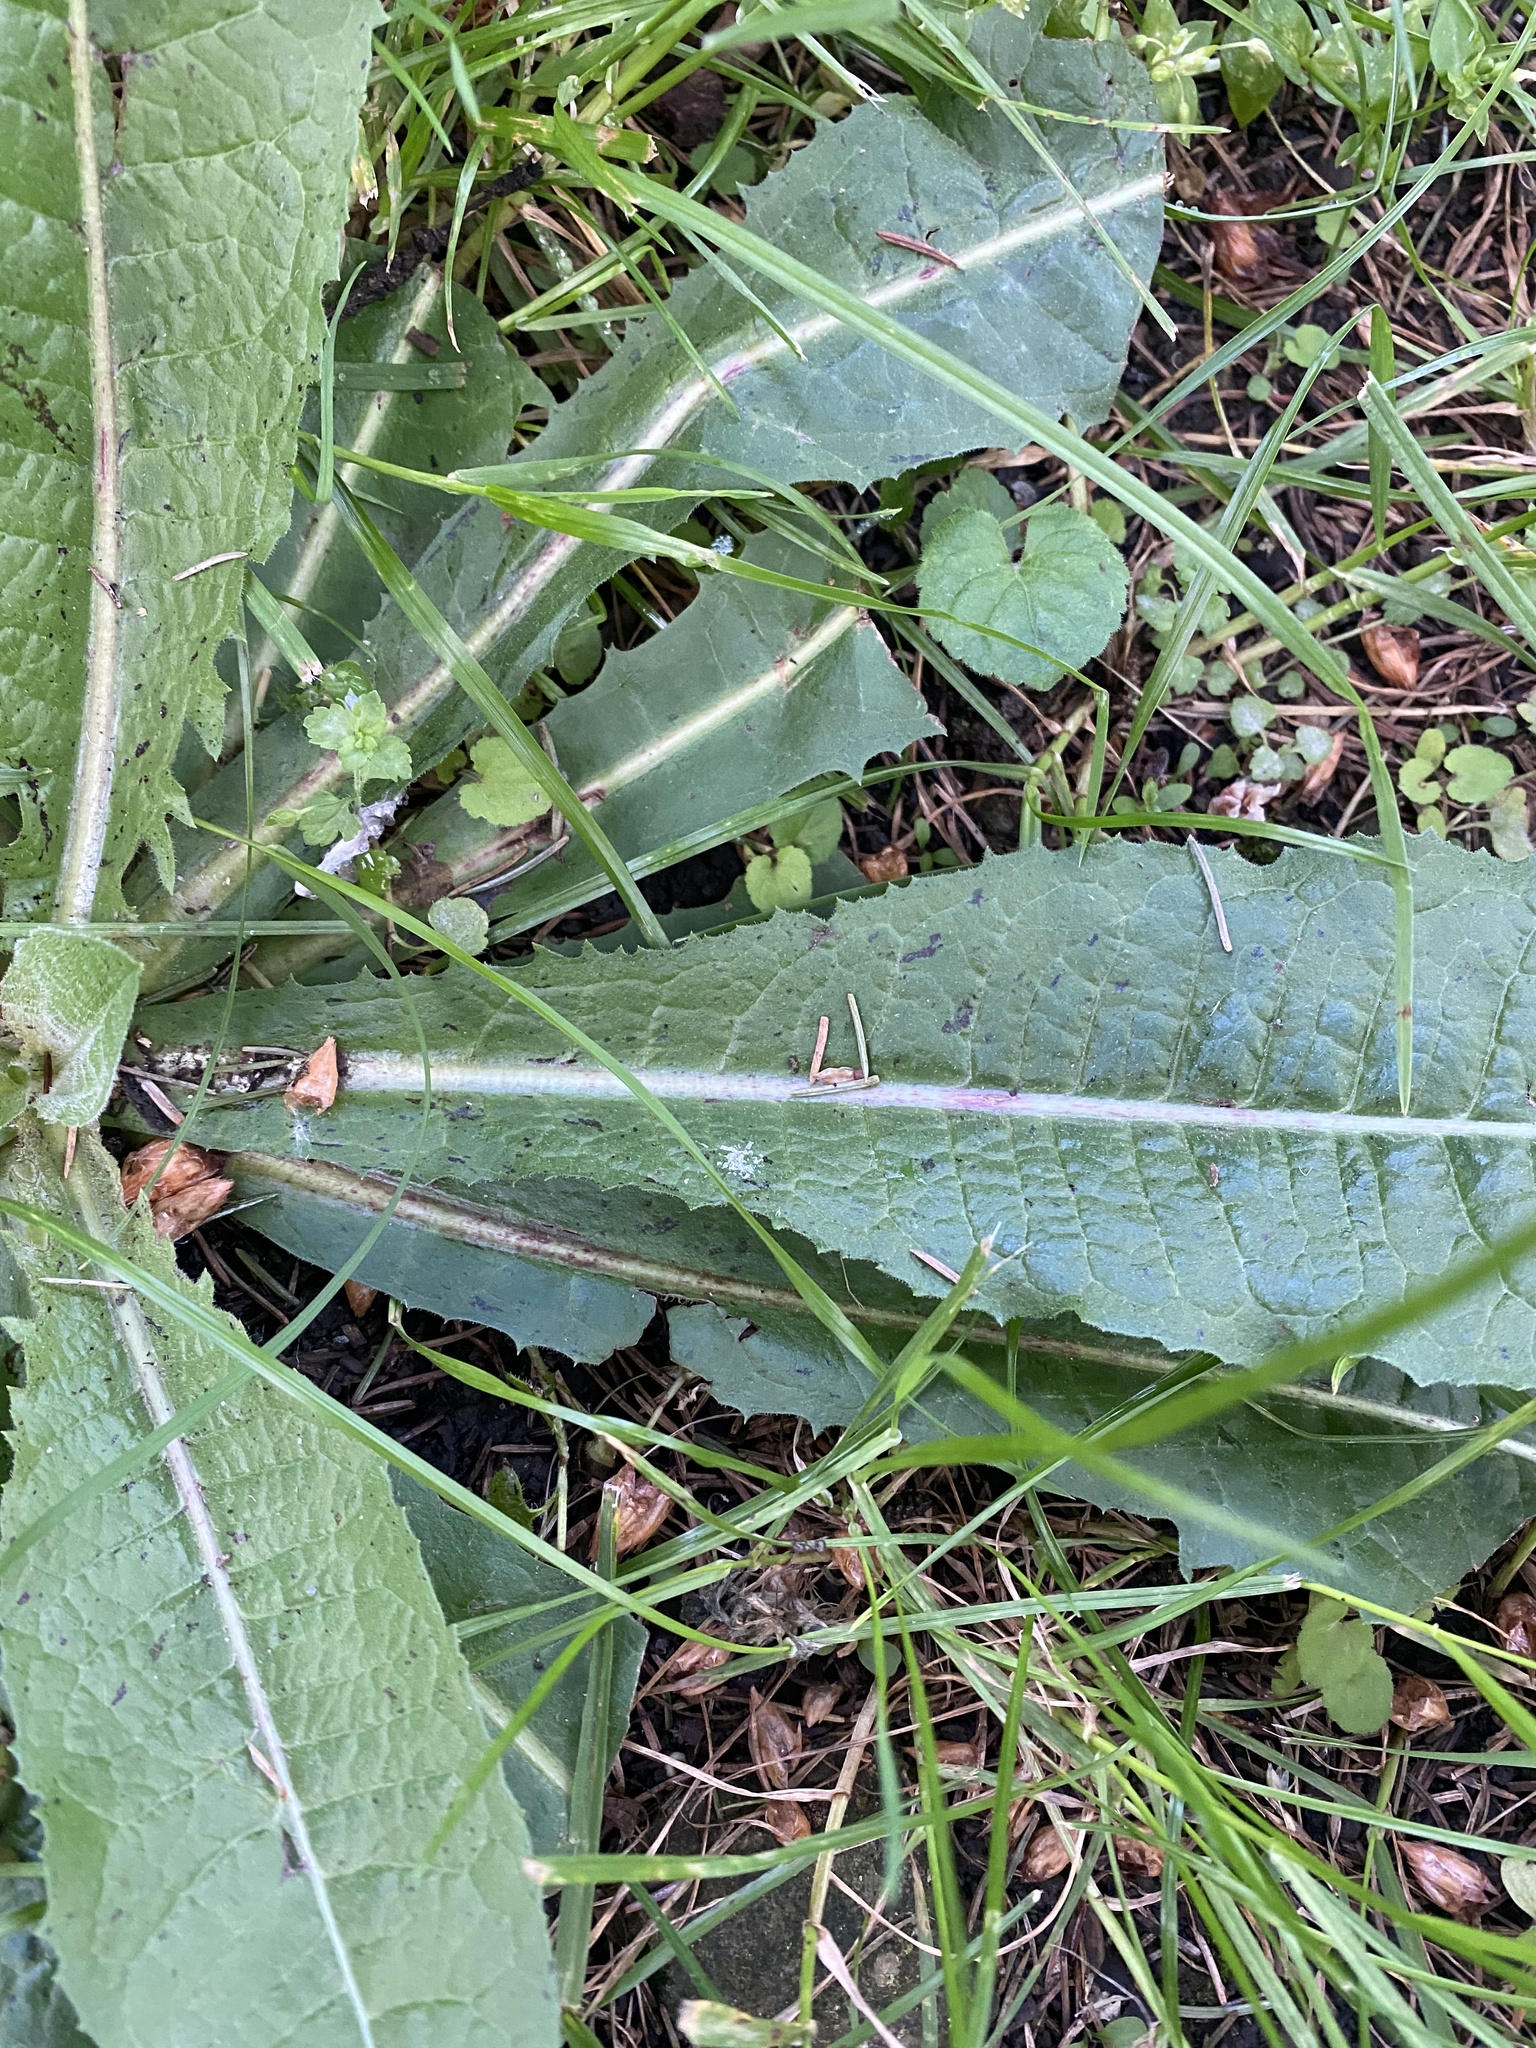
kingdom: Plantae
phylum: Tracheophyta
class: Magnoliopsida
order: Asterales
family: Asteraceae
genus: Cichorium
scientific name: Cichorium intybus
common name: Chicory
